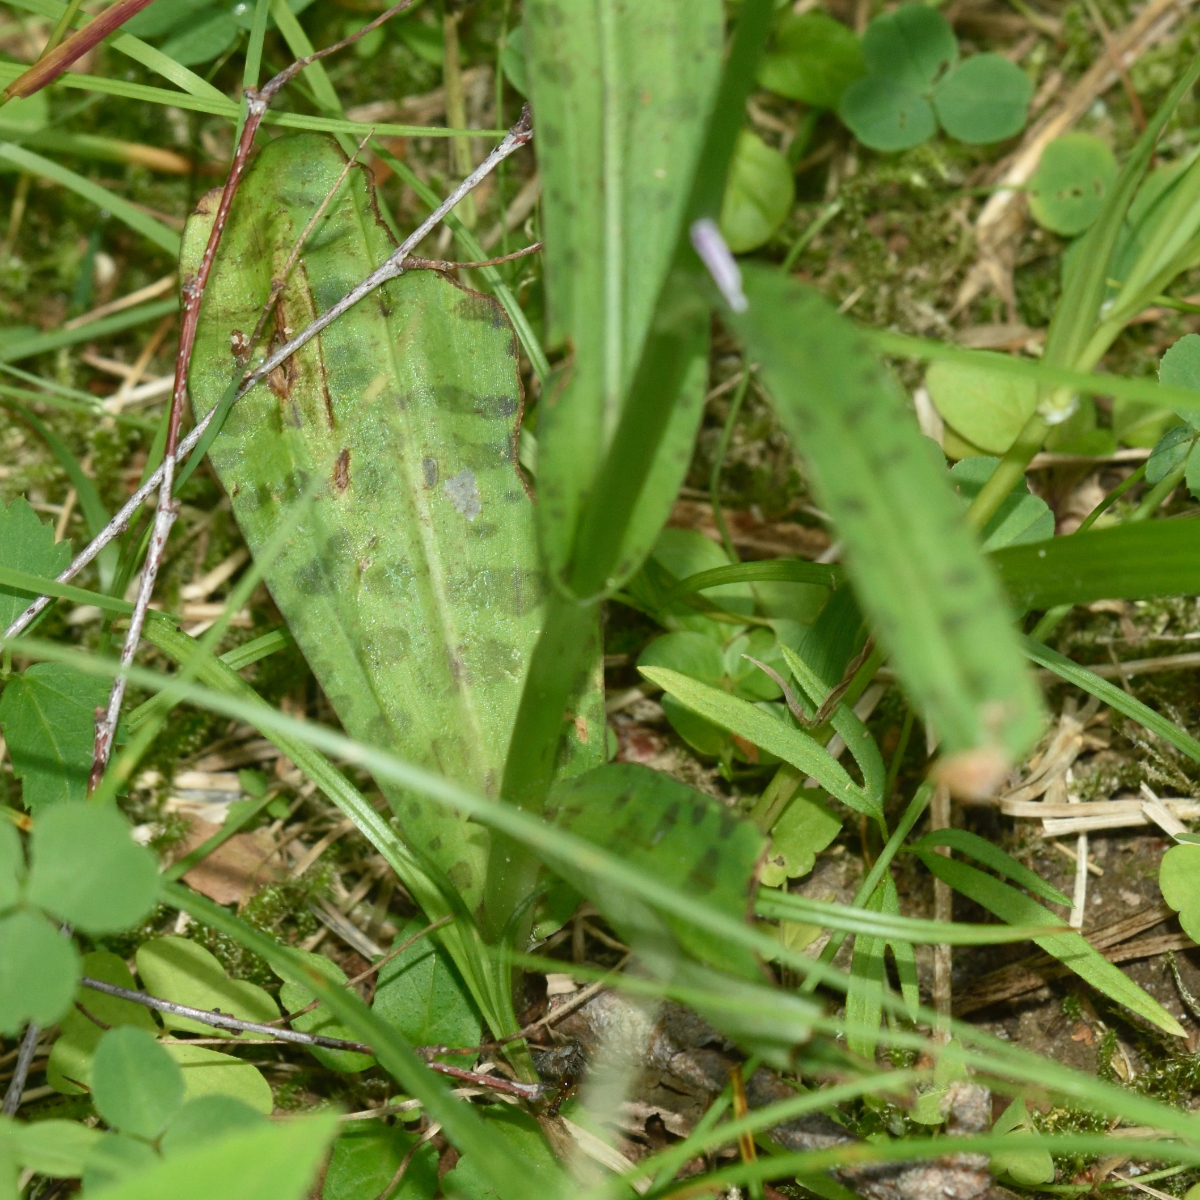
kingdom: Plantae
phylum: Tracheophyta
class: Liliopsida
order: Asparagales
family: Orchidaceae
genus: Dactylorhiza
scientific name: Dactylorhiza maculata
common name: Heath spotted-orchid
